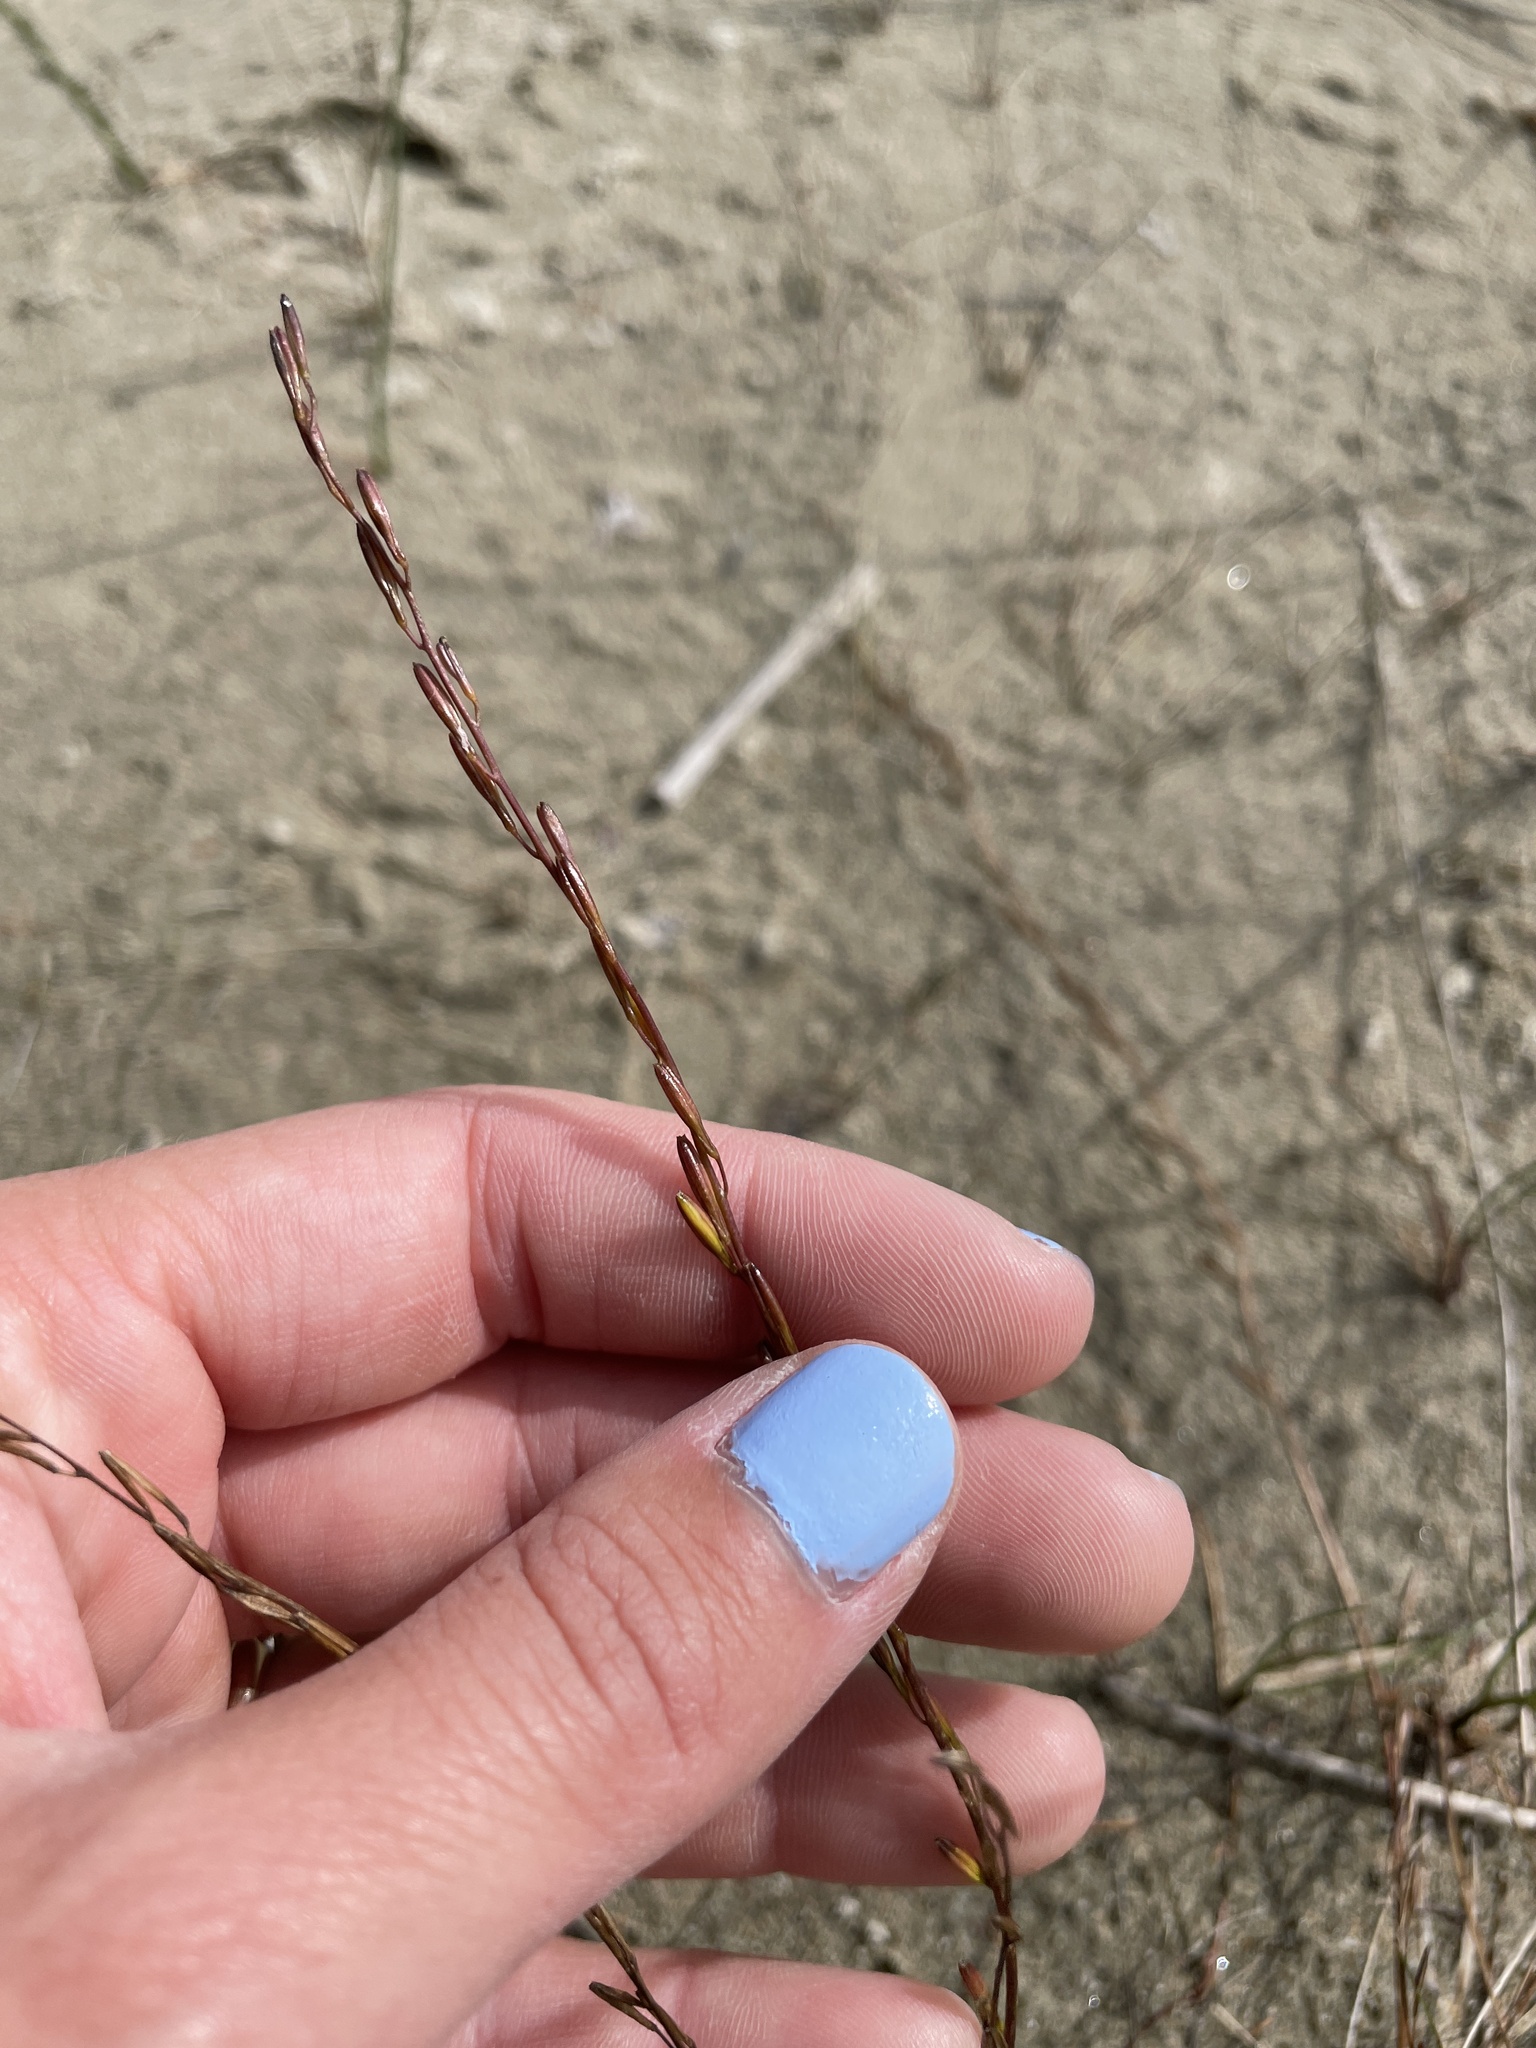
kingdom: Plantae
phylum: Tracheophyta
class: Liliopsida
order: Alismatales
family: Juncaginaceae
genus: Triglochin
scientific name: Triglochin palustris
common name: Marsh arrowgrass
